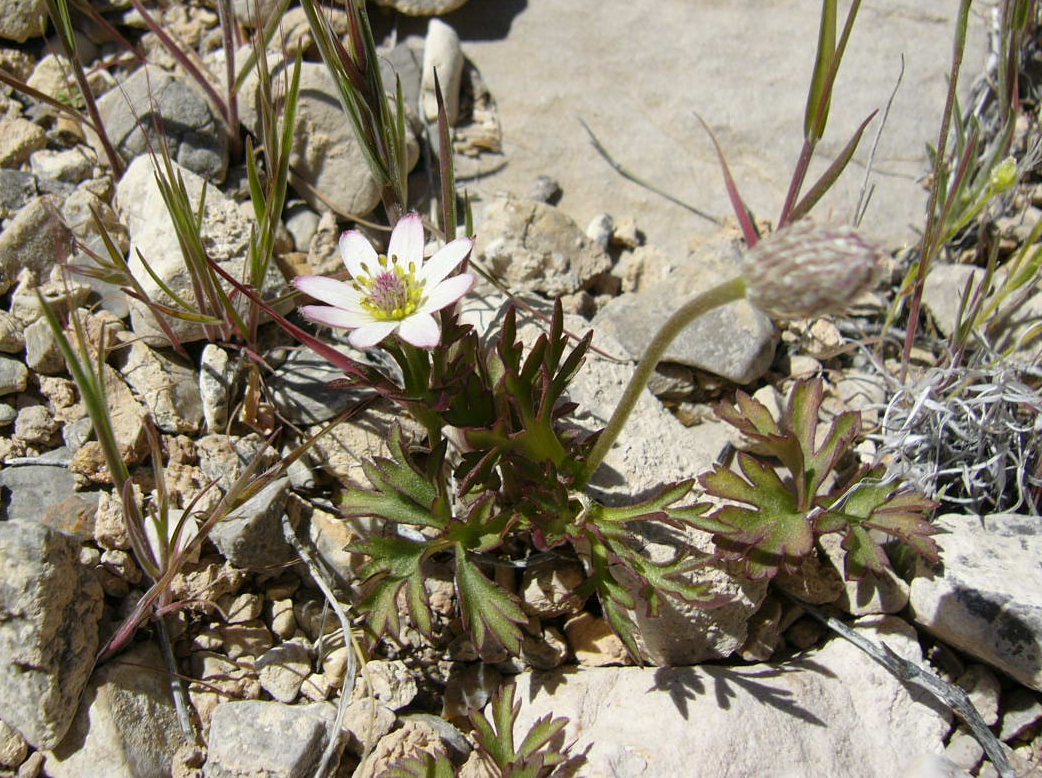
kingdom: Plantae
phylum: Tracheophyta
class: Magnoliopsida
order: Ranunculales
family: Ranunculaceae
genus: Anemone
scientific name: Anemone tuberosa
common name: Desert anemone
